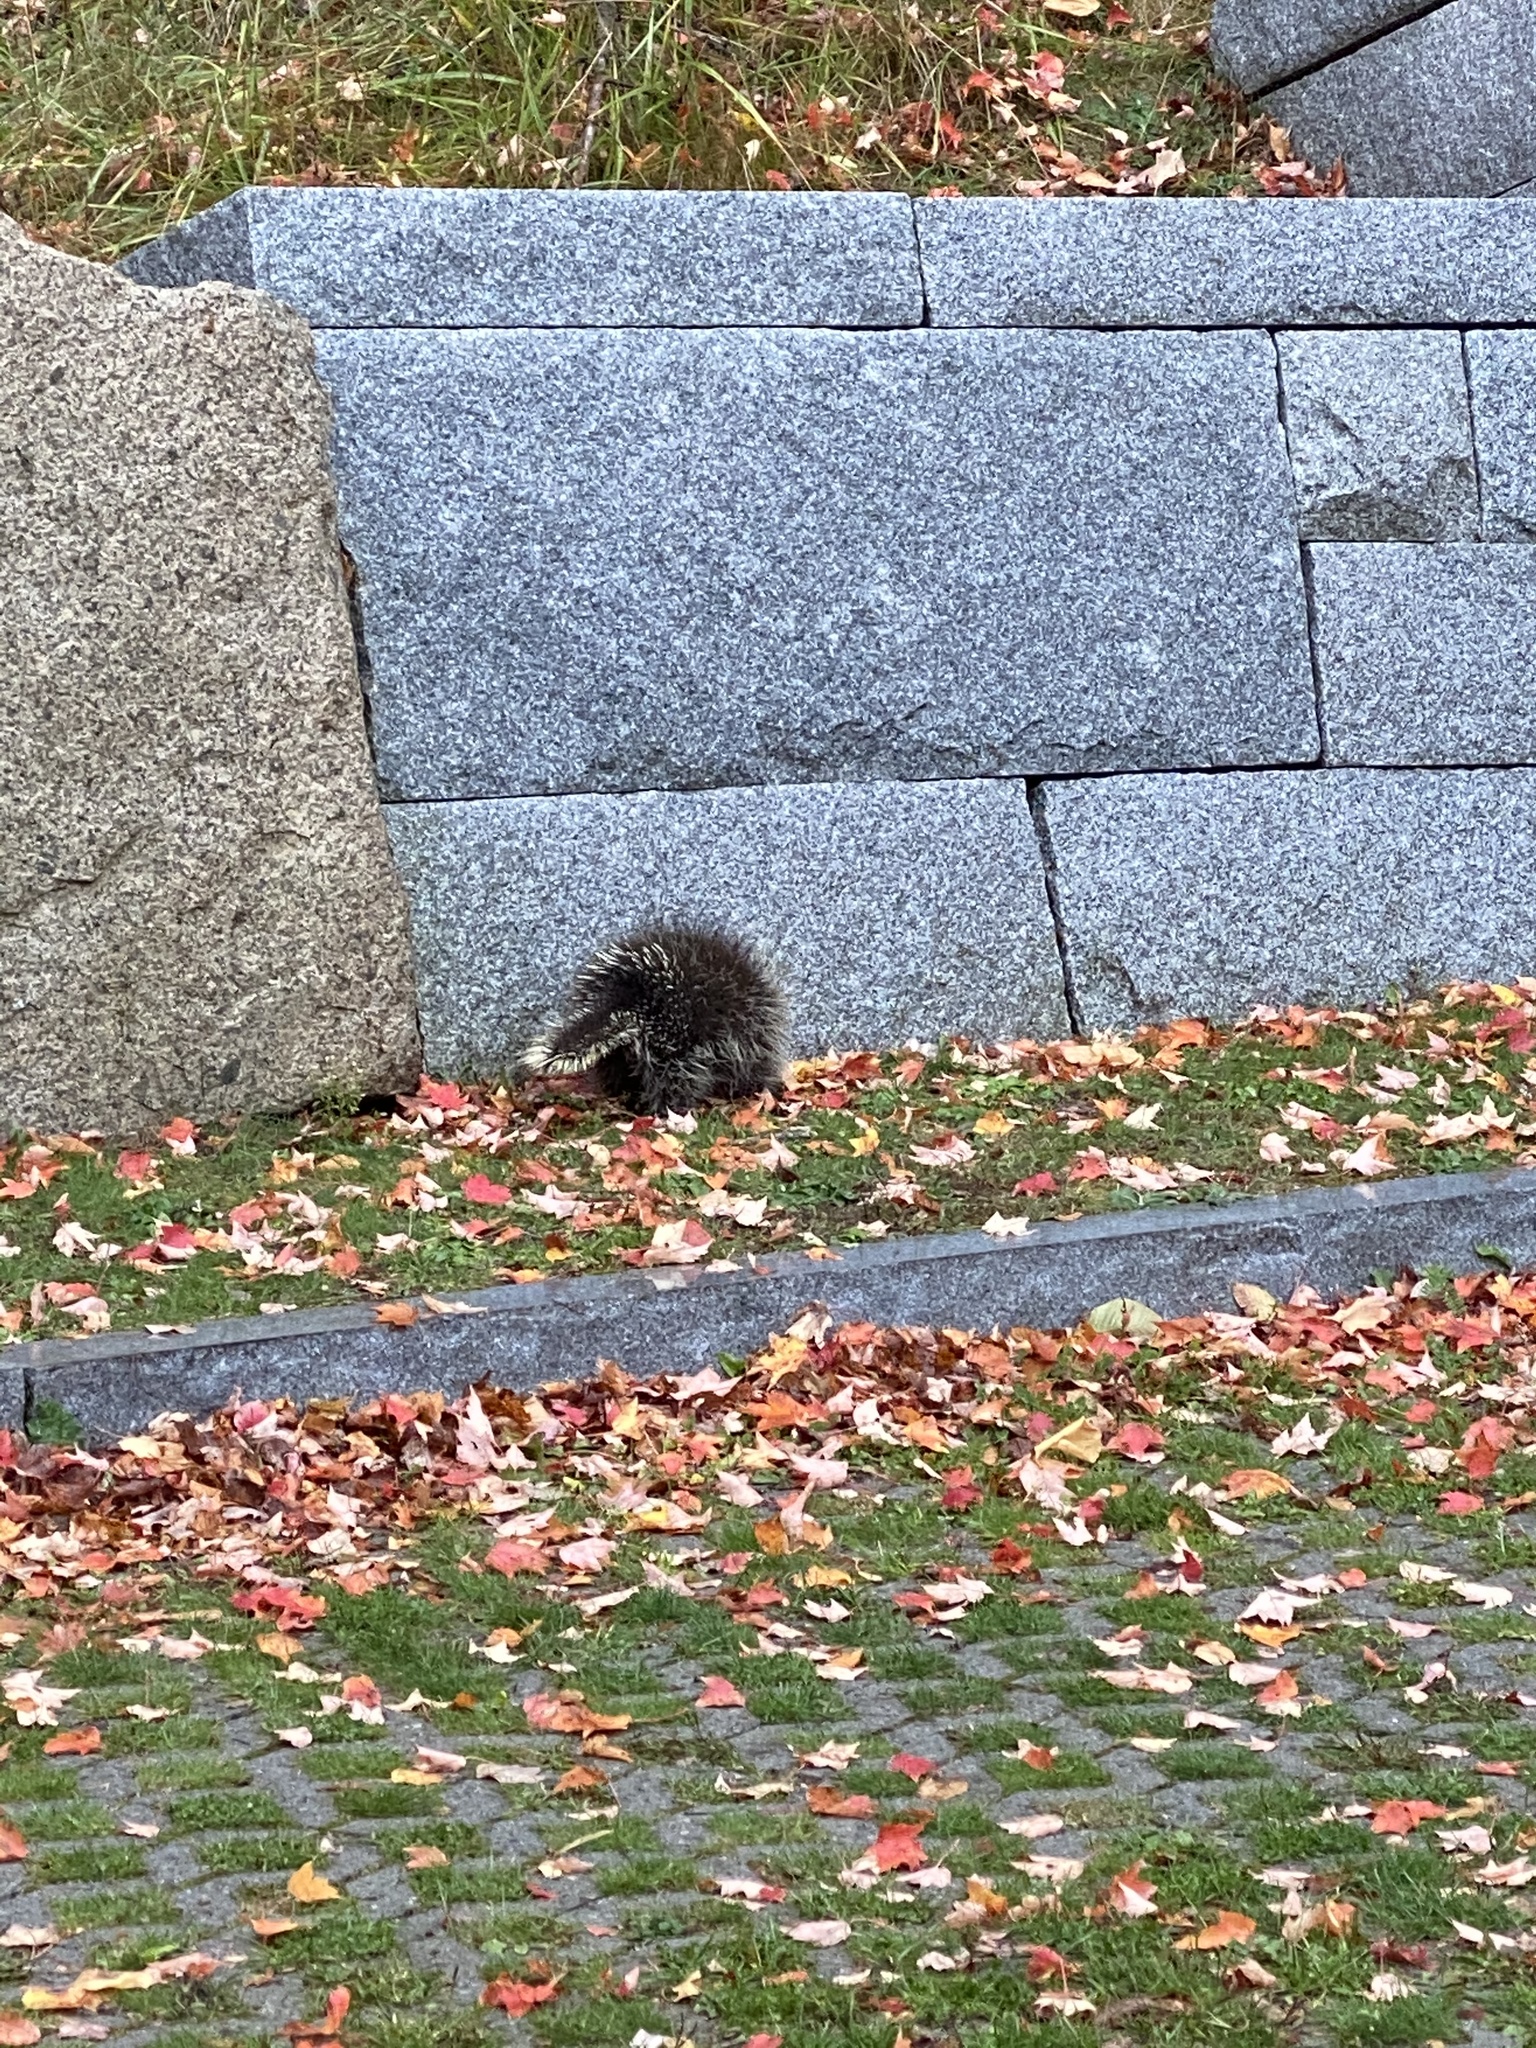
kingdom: Animalia
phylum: Chordata
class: Mammalia
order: Rodentia
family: Erethizontidae
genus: Erethizon
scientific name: Erethizon dorsatus
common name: North american porcupine
